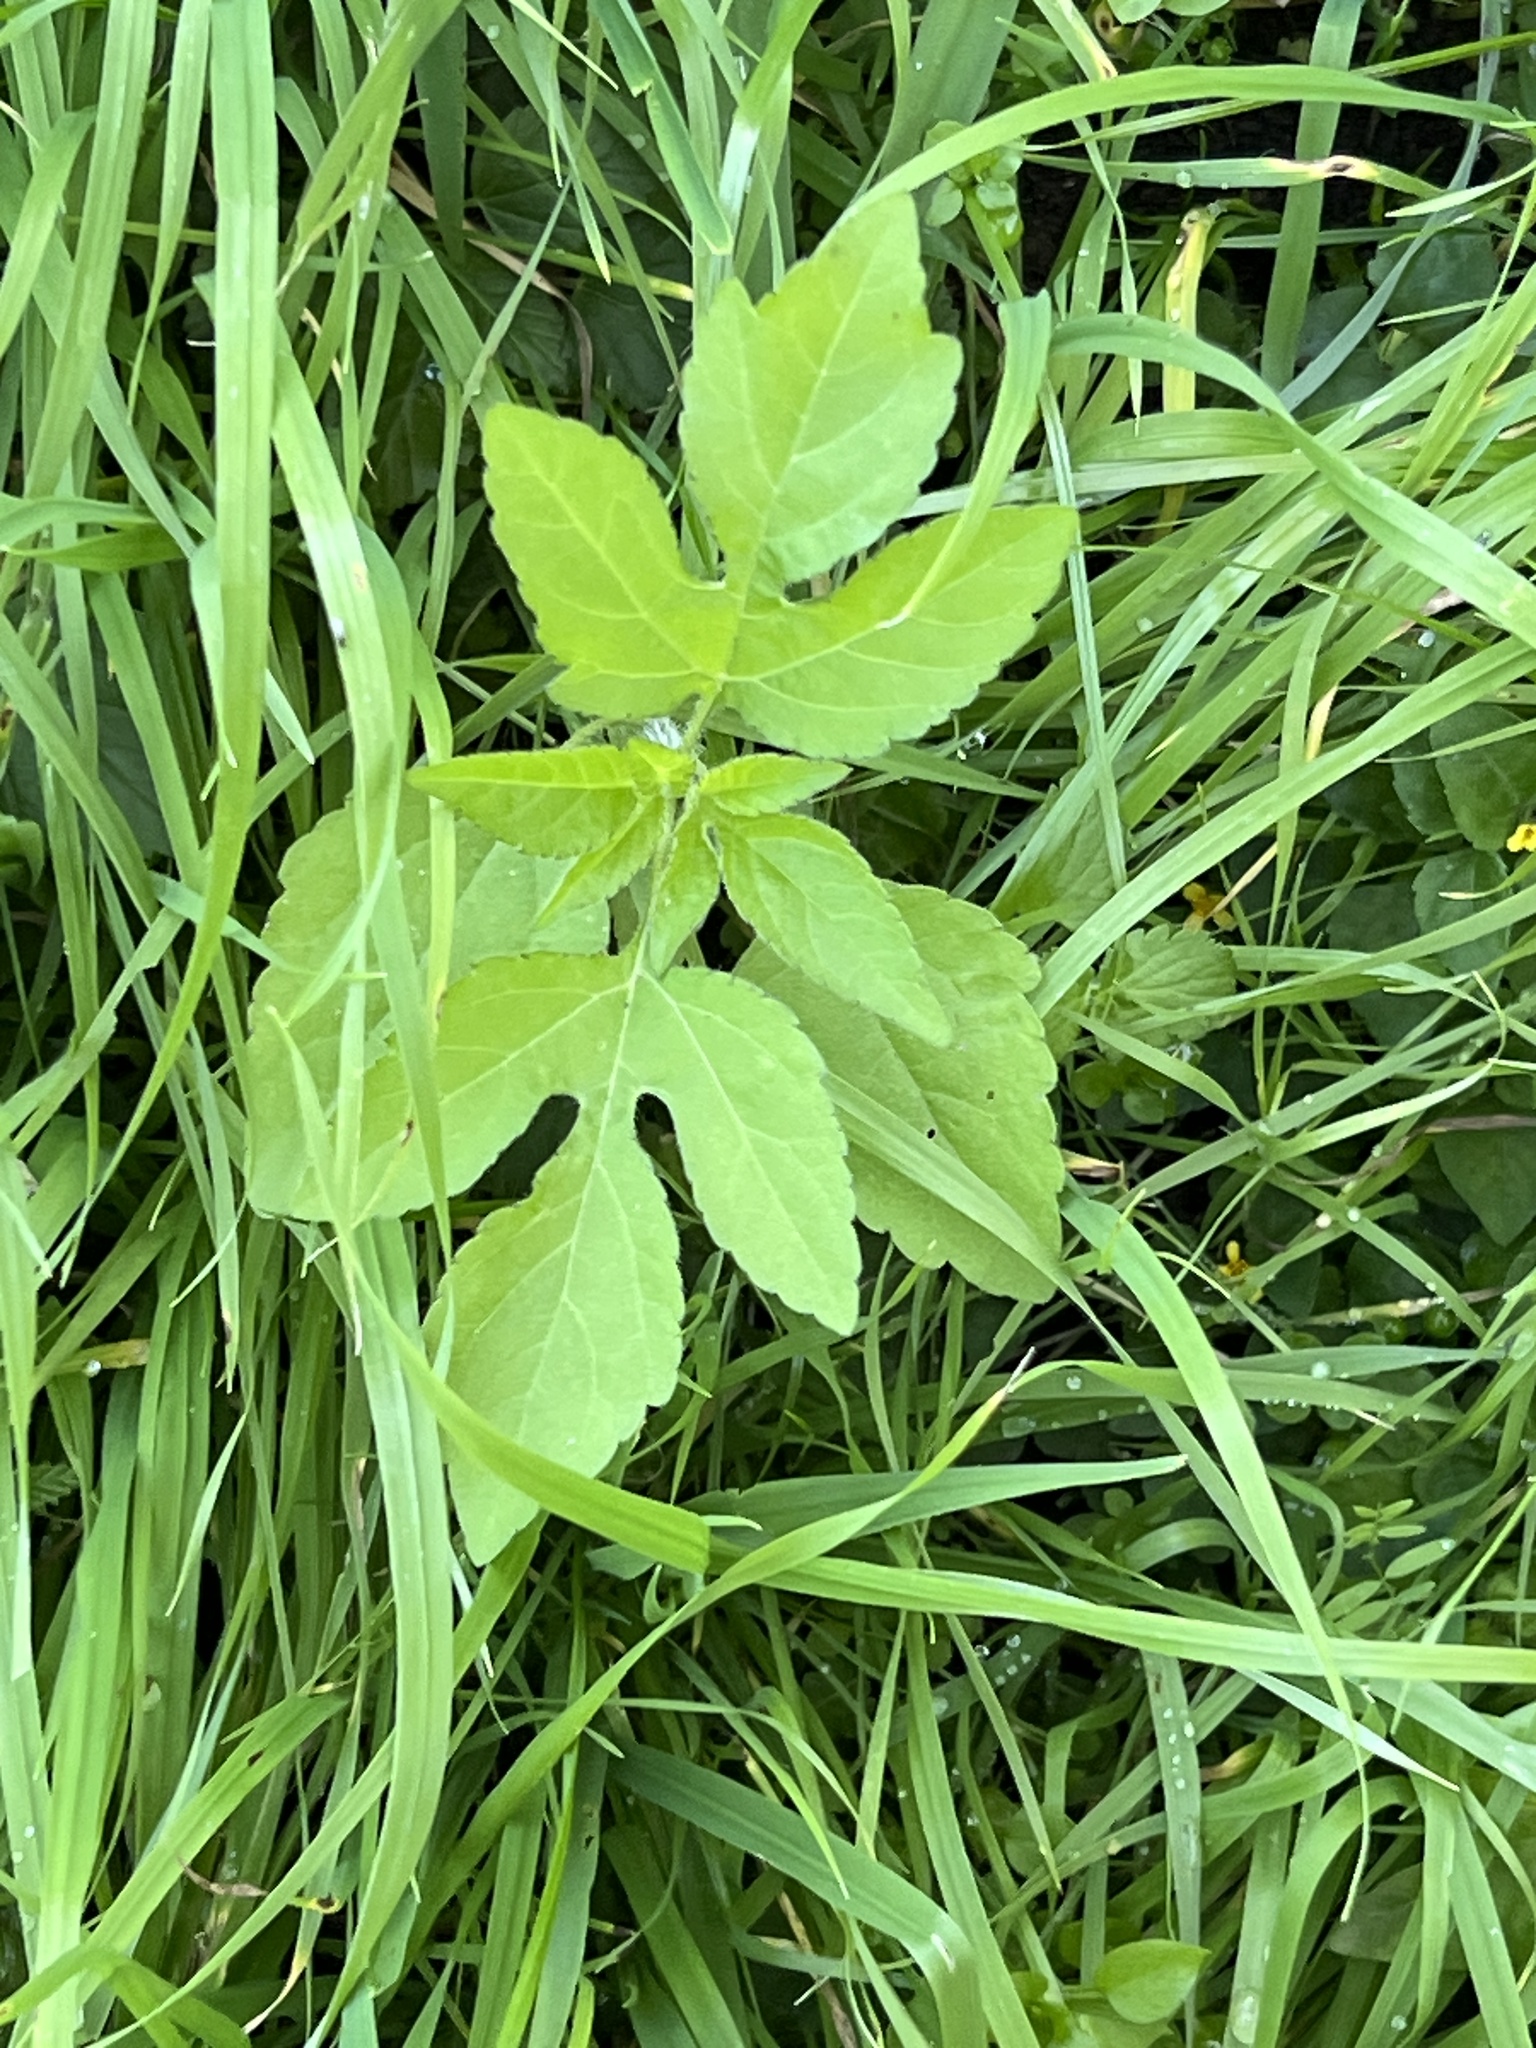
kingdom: Plantae
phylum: Tracheophyta
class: Magnoliopsida
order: Asterales
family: Asteraceae
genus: Ambrosia
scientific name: Ambrosia trifida
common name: Giant ragweed
